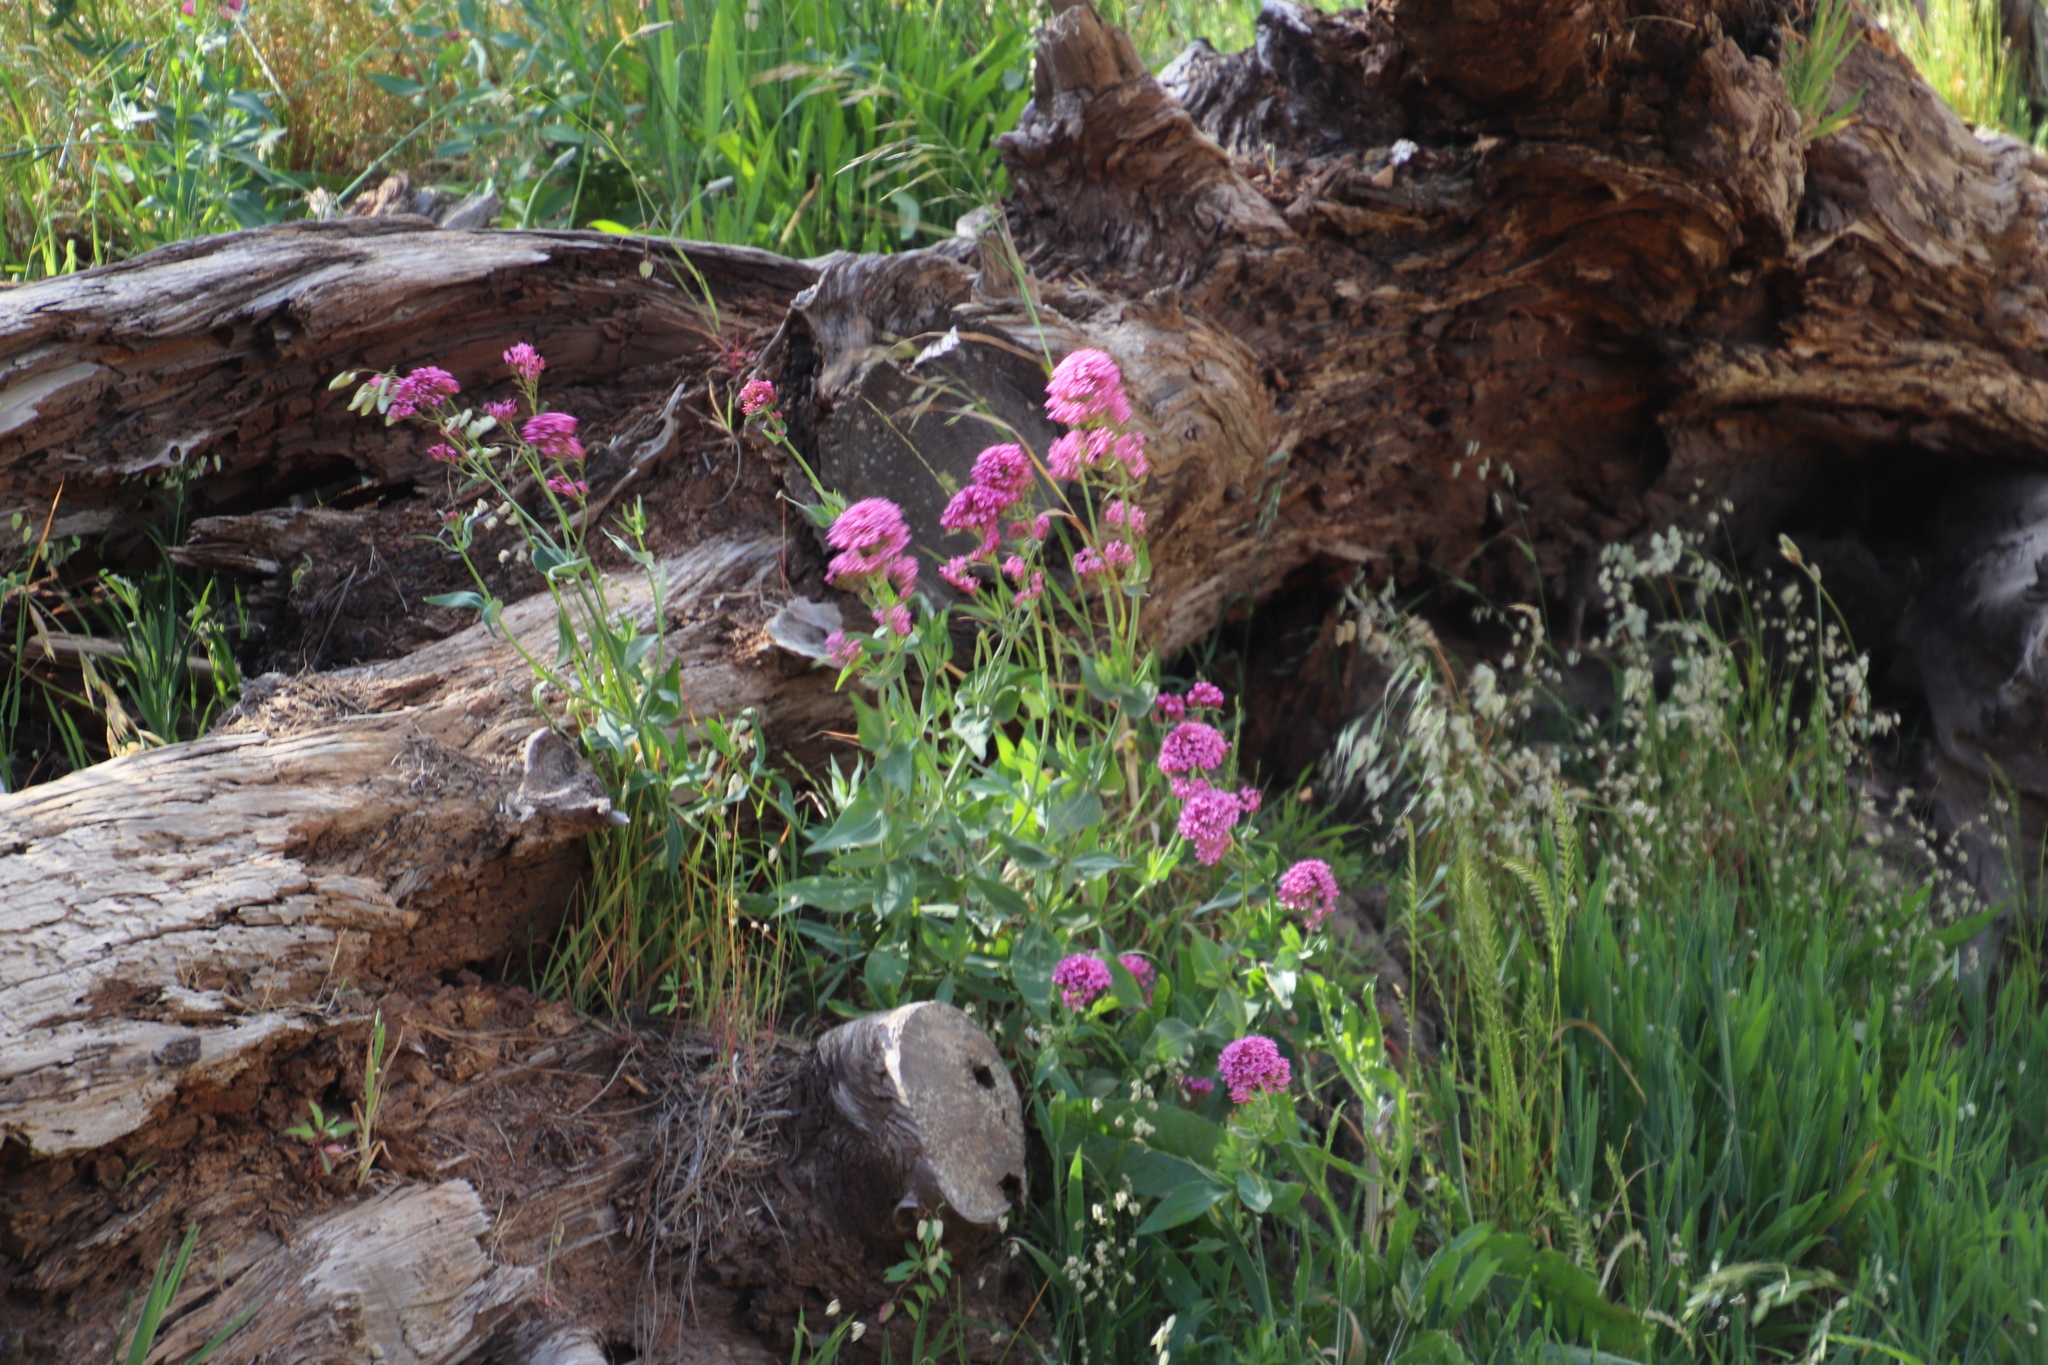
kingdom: Plantae
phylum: Tracheophyta
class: Magnoliopsida
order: Dipsacales
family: Caprifoliaceae
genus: Centranthus
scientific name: Centranthus ruber
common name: Red valerian
